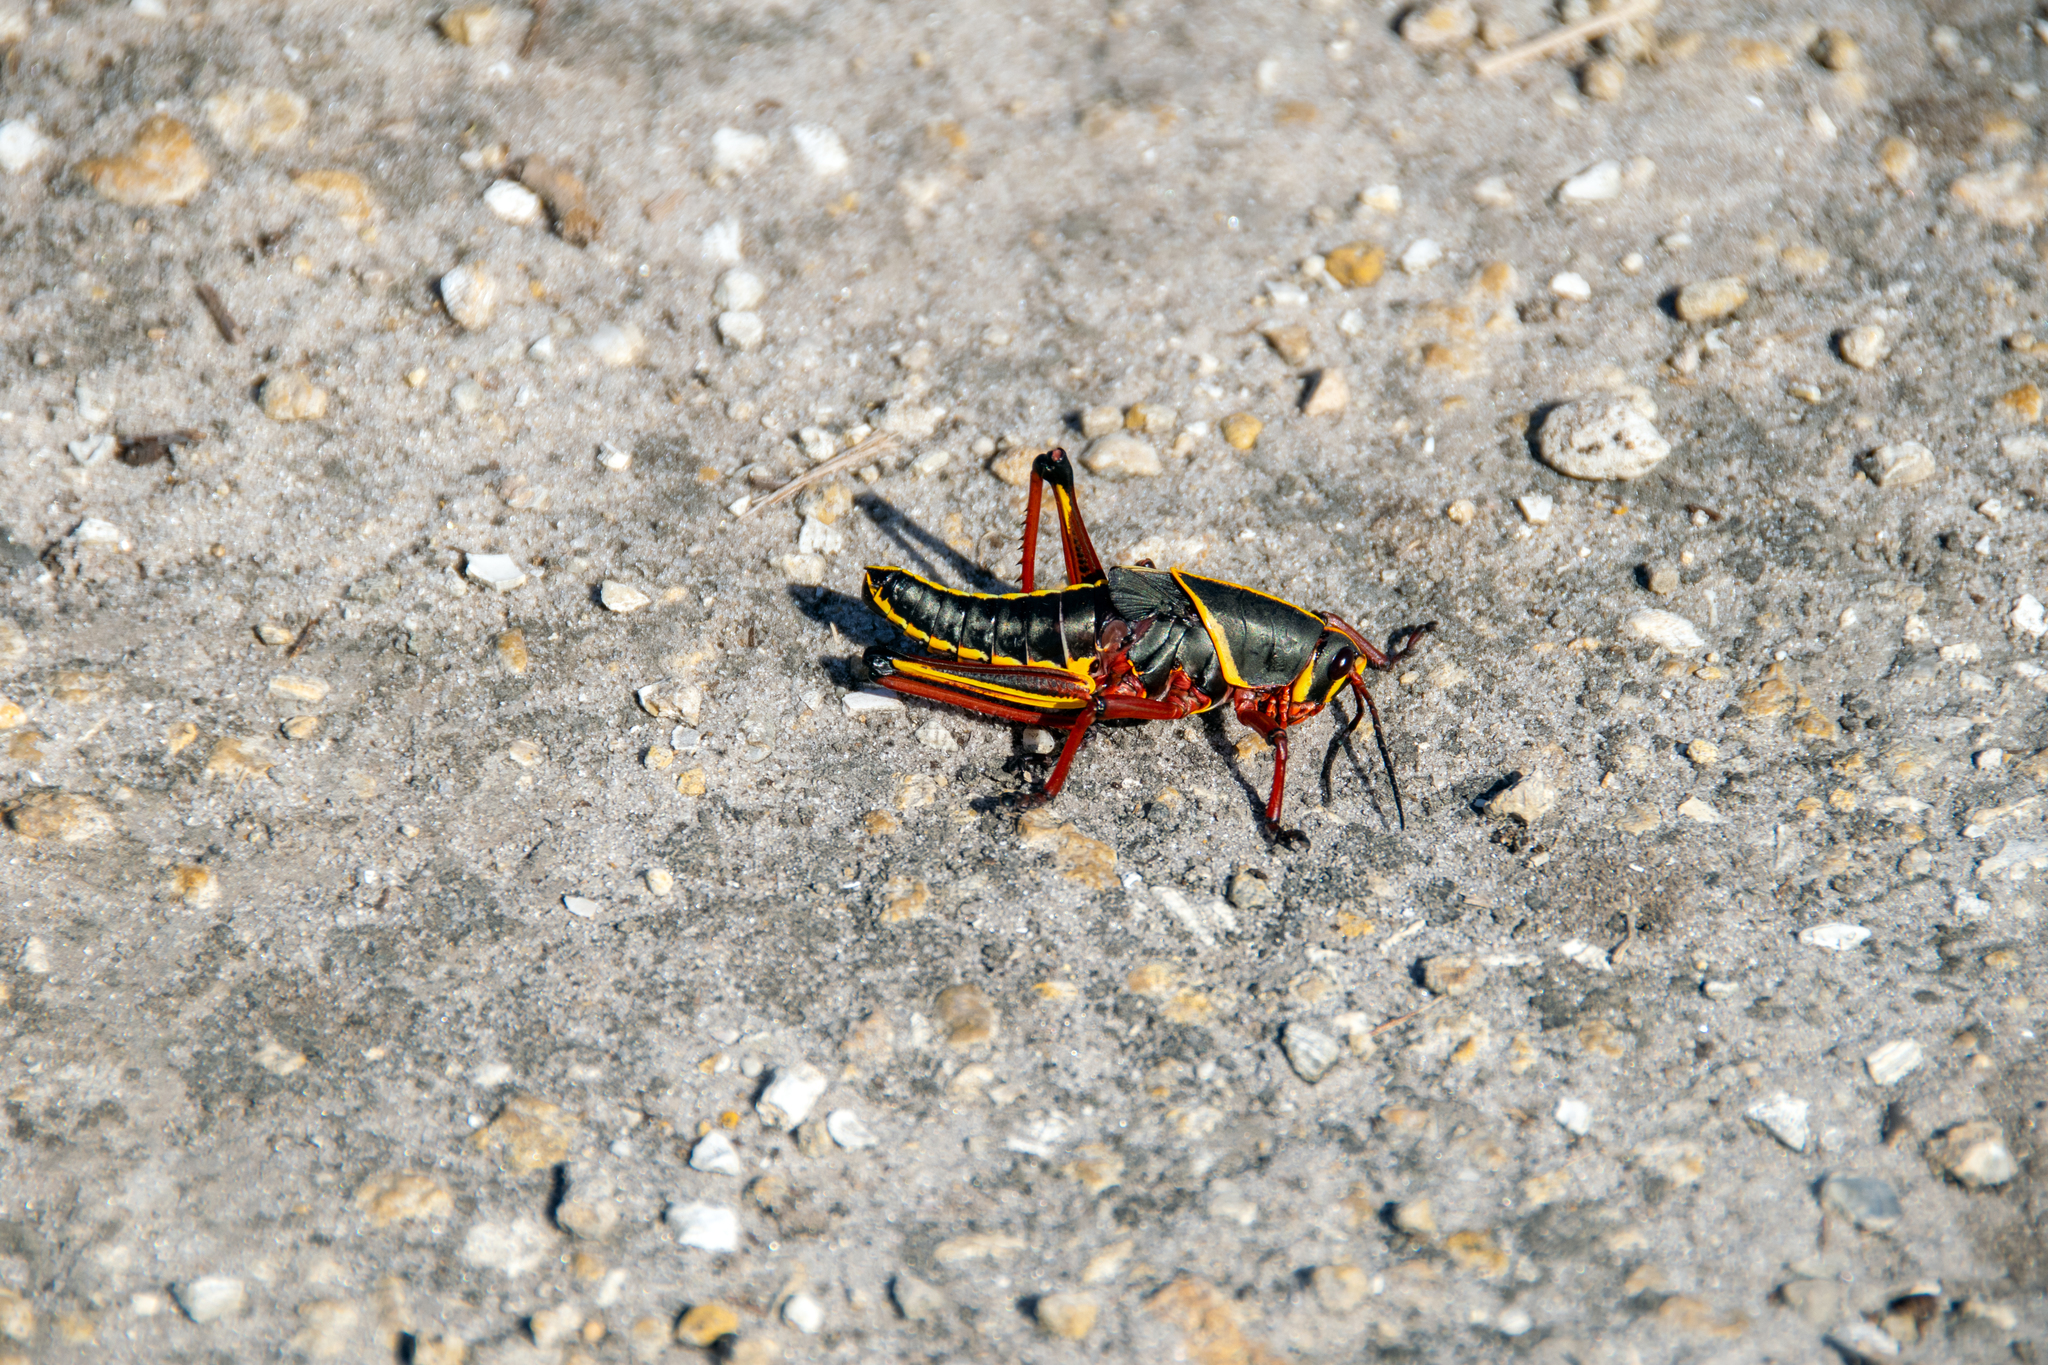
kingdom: Animalia
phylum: Arthropoda
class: Insecta
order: Orthoptera
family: Romaleidae
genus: Romalea
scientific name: Romalea microptera
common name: Eastern lubber grasshopper
